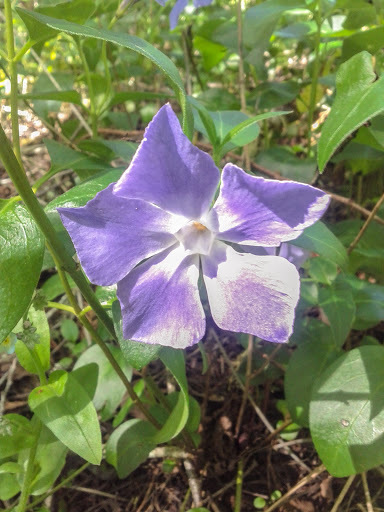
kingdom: Plantae
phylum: Tracheophyta
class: Magnoliopsida
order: Gentianales
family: Apocynaceae
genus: Vinca
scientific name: Vinca major
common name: Greater periwinkle
